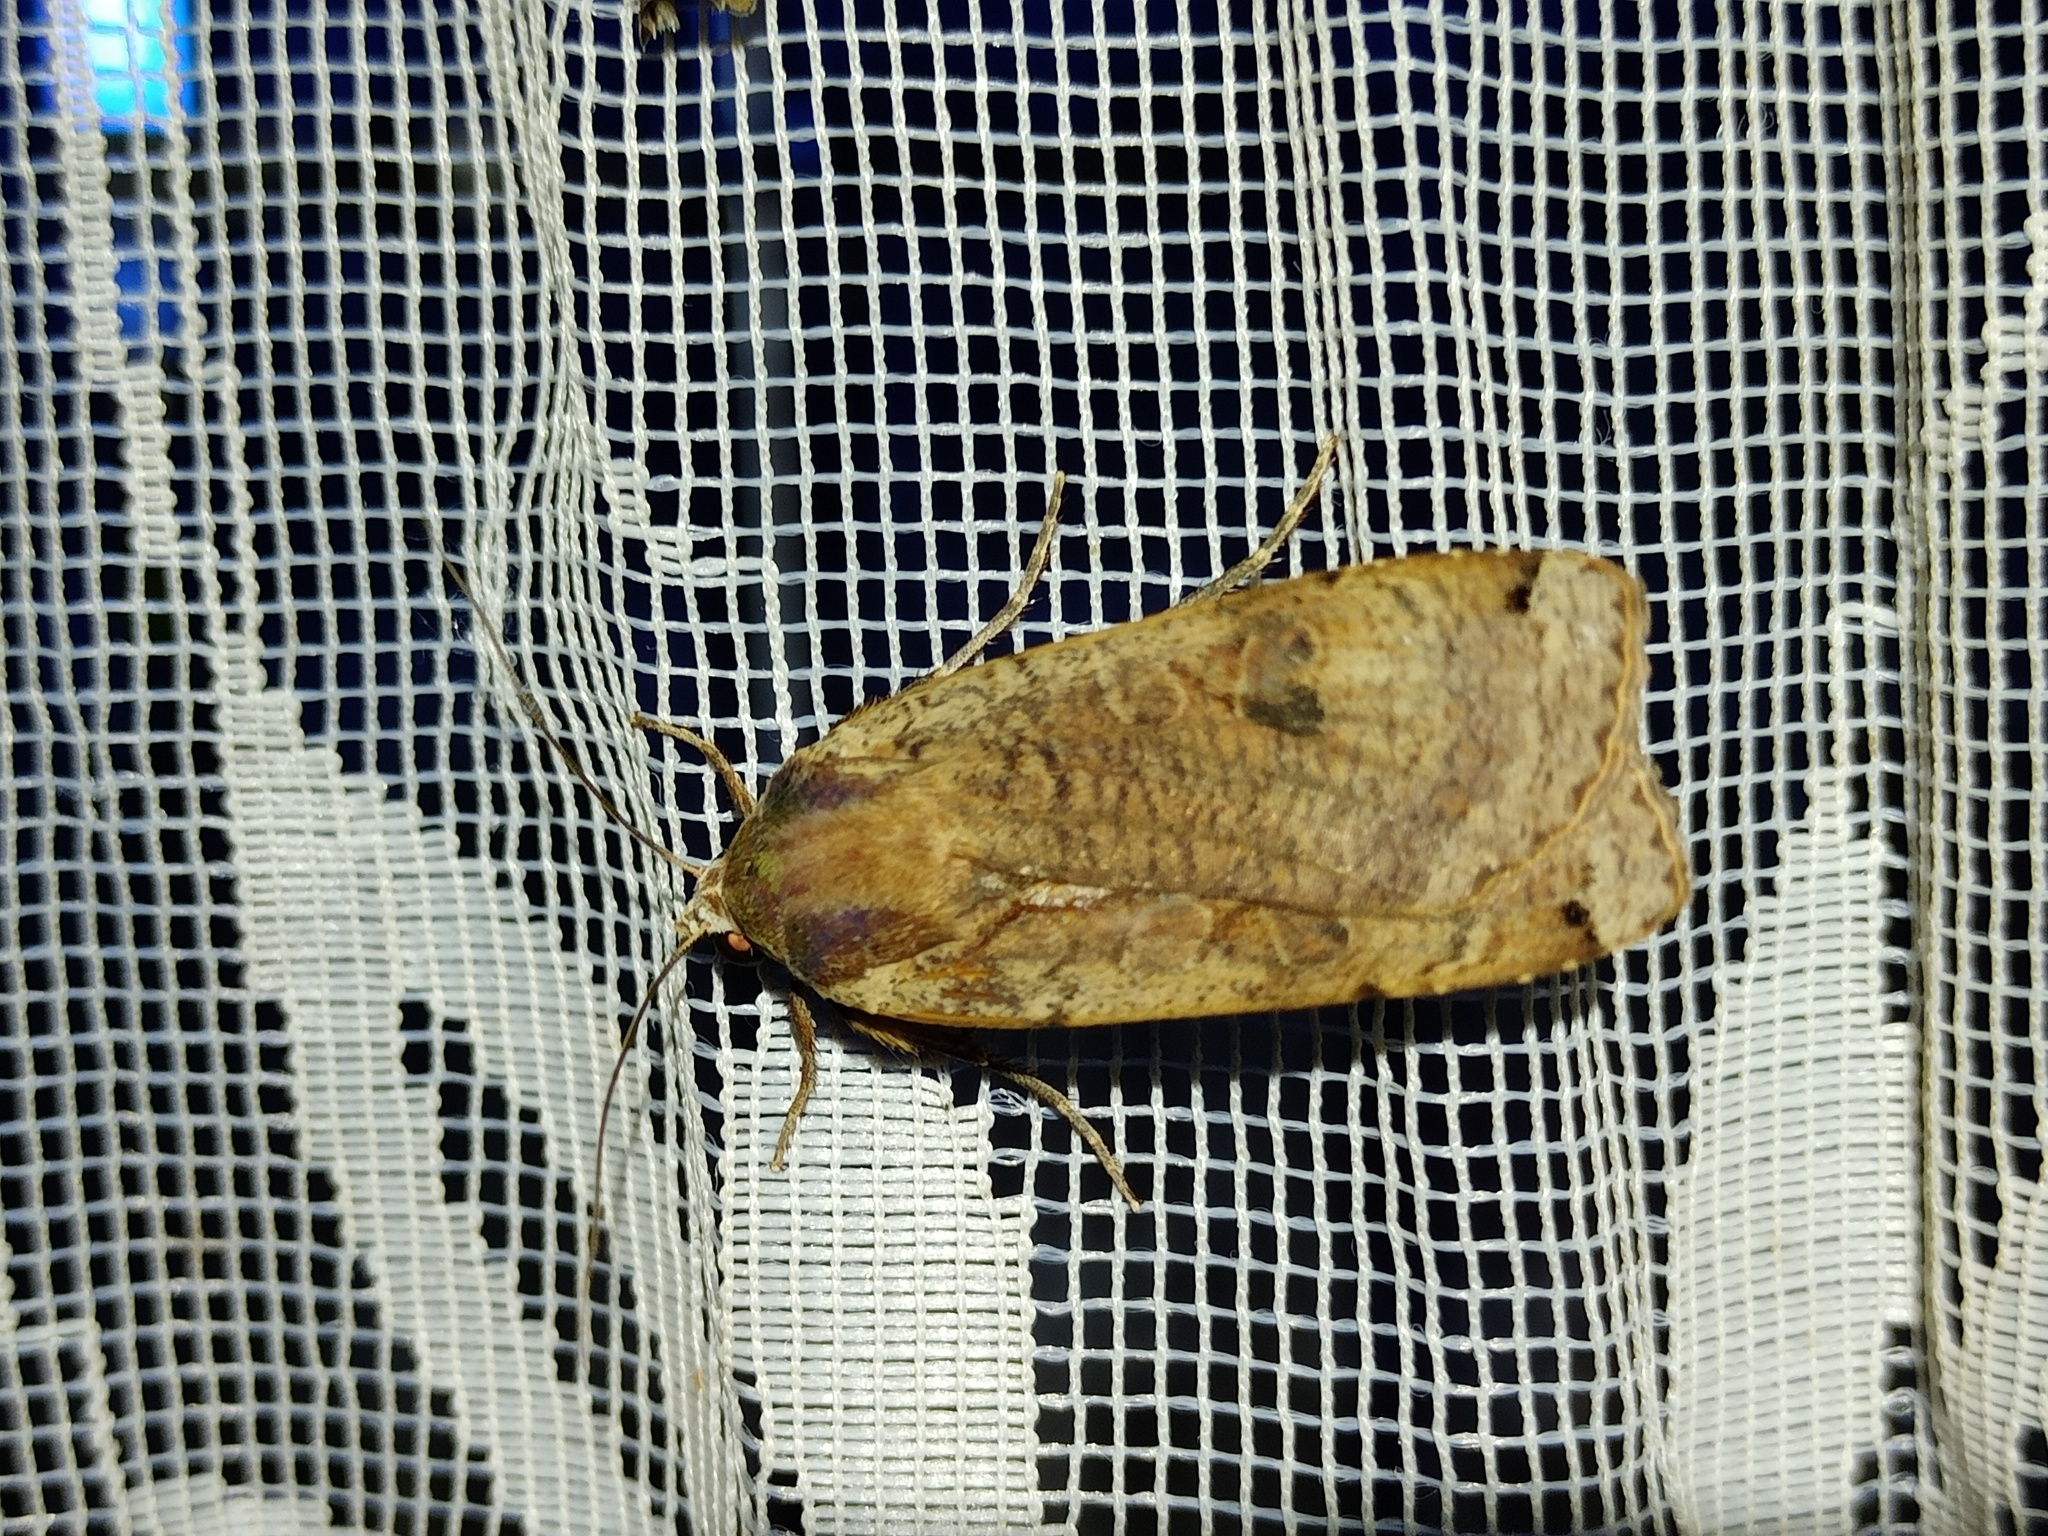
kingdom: Animalia
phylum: Arthropoda
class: Insecta
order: Lepidoptera
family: Noctuidae
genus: Noctua
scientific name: Noctua pronuba
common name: Large yellow underwing
